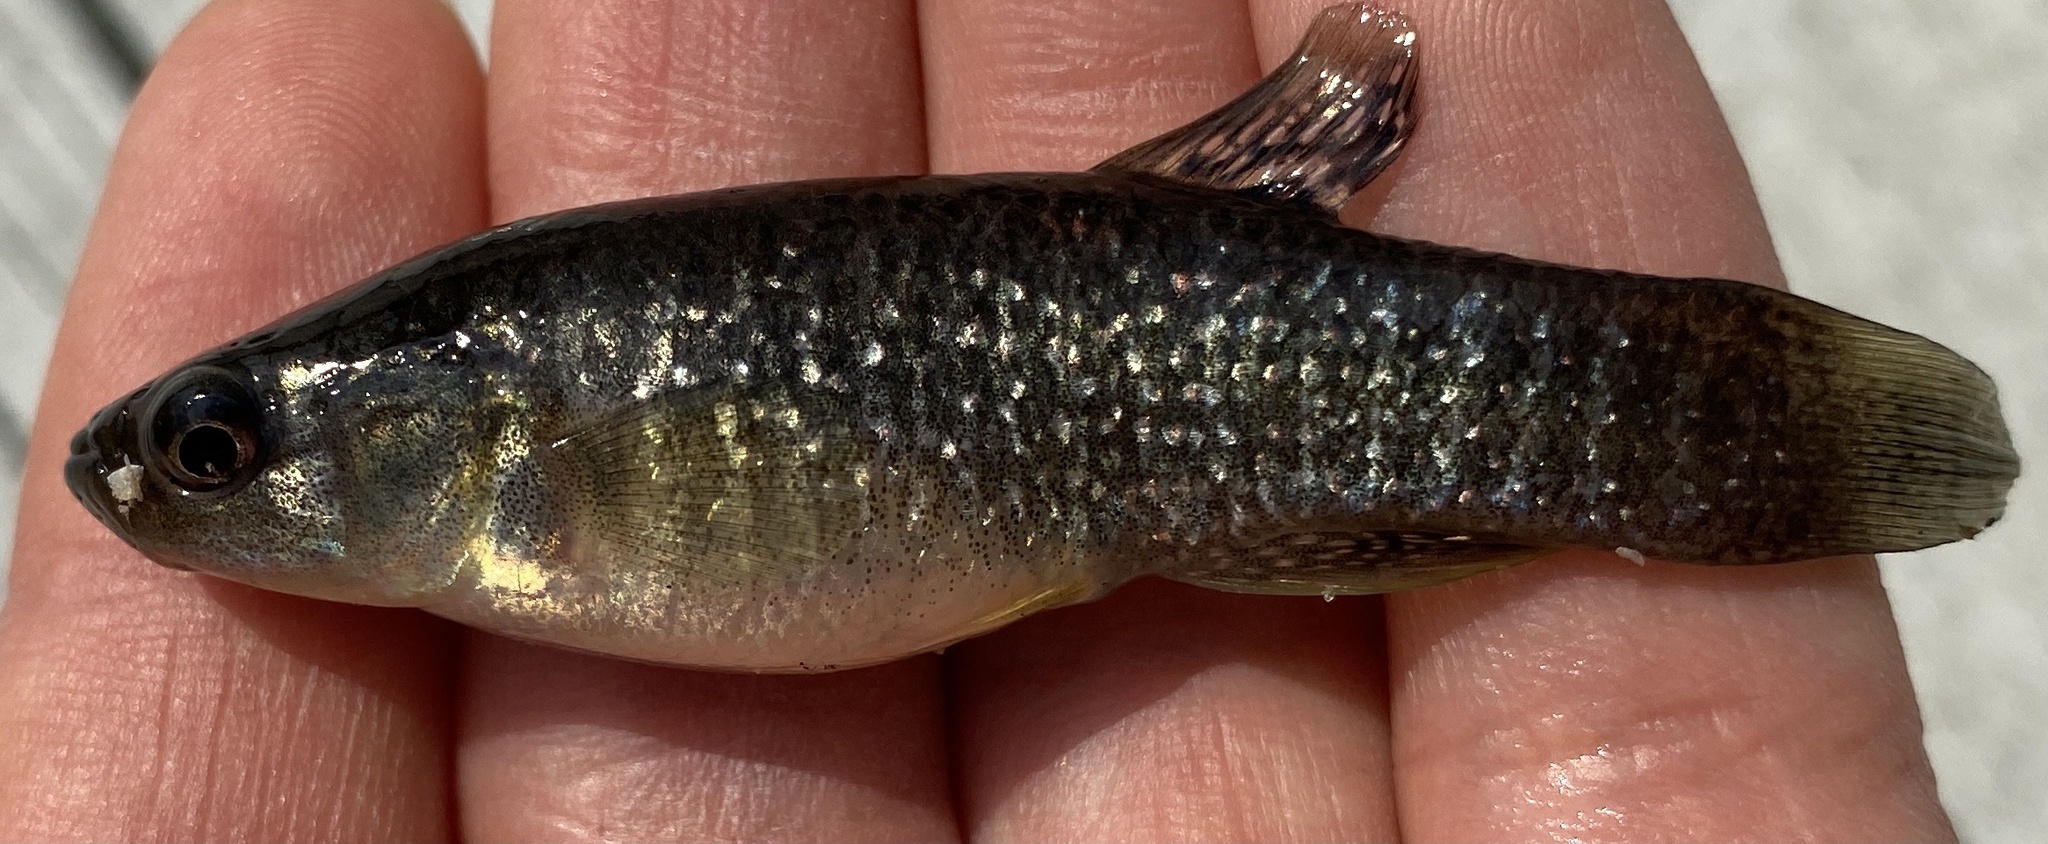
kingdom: Animalia
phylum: Chordata
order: Cyprinodontiformes
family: Fundulidae
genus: Fundulus
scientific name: Fundulus heteroclitus
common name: Mummichog
